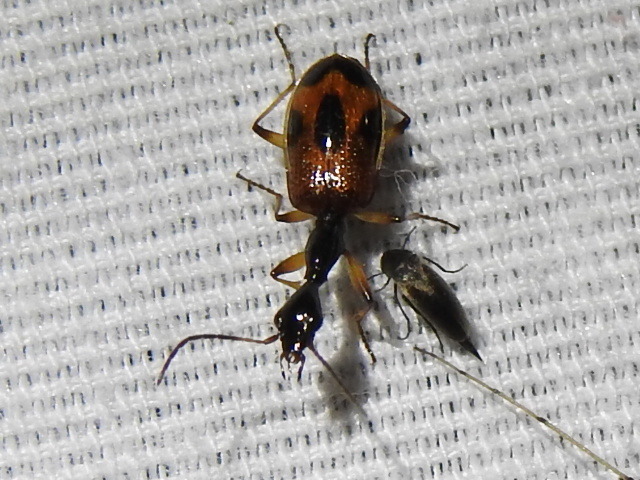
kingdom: Animalia
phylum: Arthropoda
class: Insecta
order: Coleoptera
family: Carabidae
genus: Colliuris
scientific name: Colliuris pensylvanica
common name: Long-necked ground beetle
